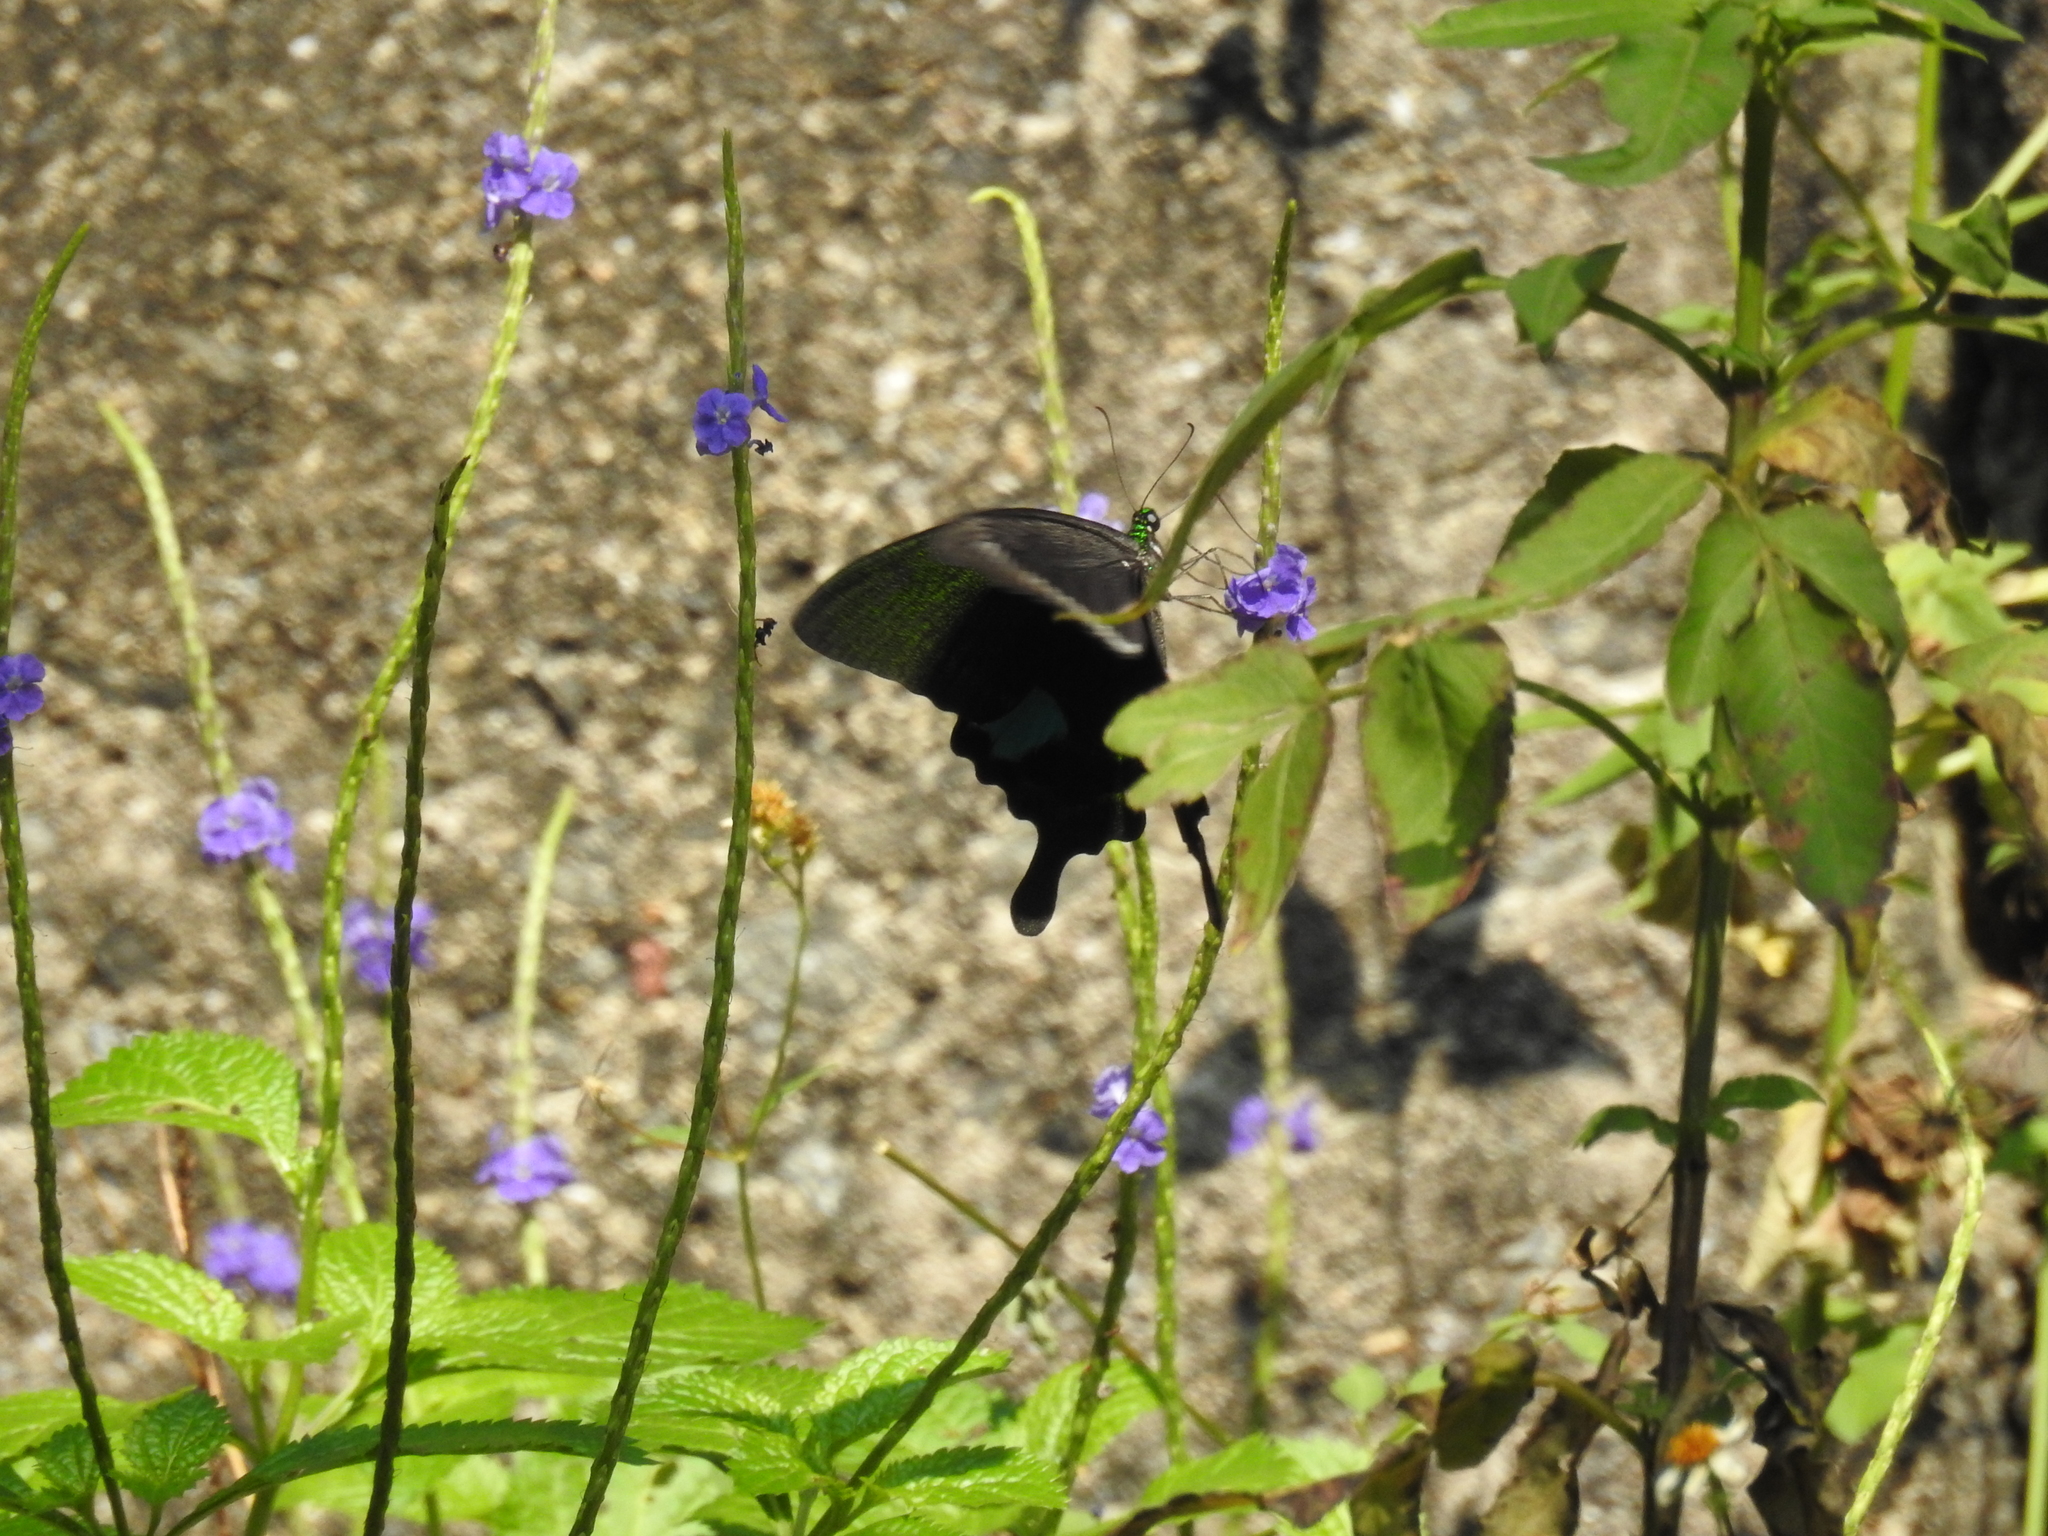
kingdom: Animalia
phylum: Arthropoda
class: Insecta
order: Lepidoptera
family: Papilionidae
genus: Papilio
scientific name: Papilio paris
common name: Paris peacock
